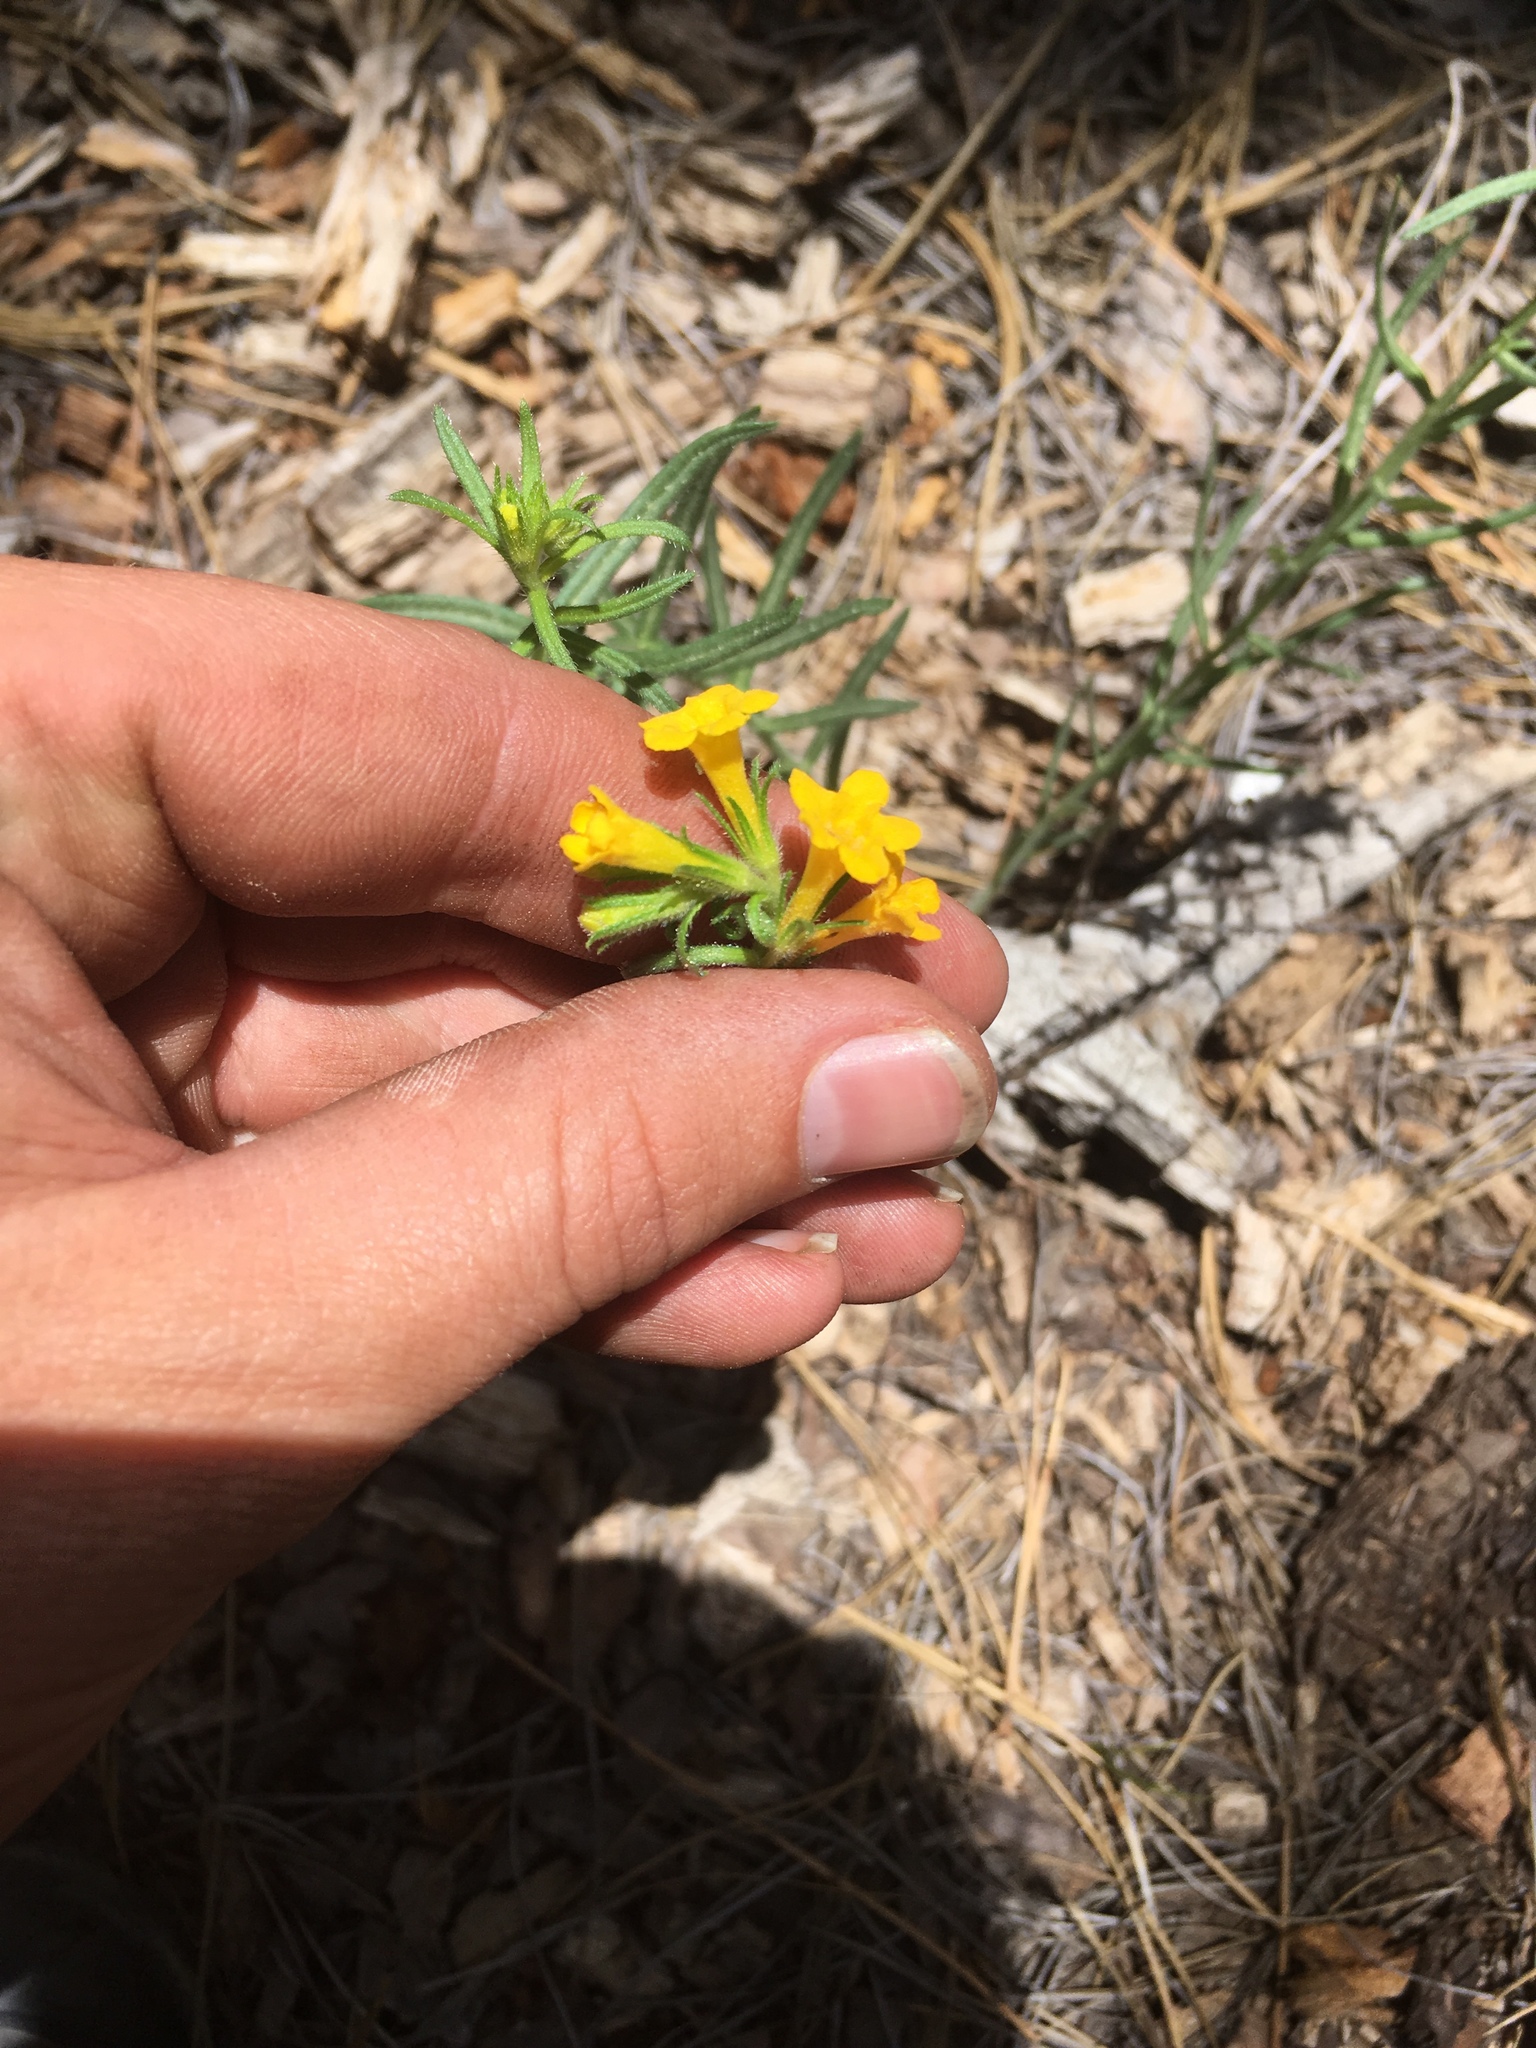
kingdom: Plantae
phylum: Tracheophyta
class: Magnoliopsida
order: Boraginales
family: Boraginaceae
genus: Lithospermum
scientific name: Lithospermum multiflorum
